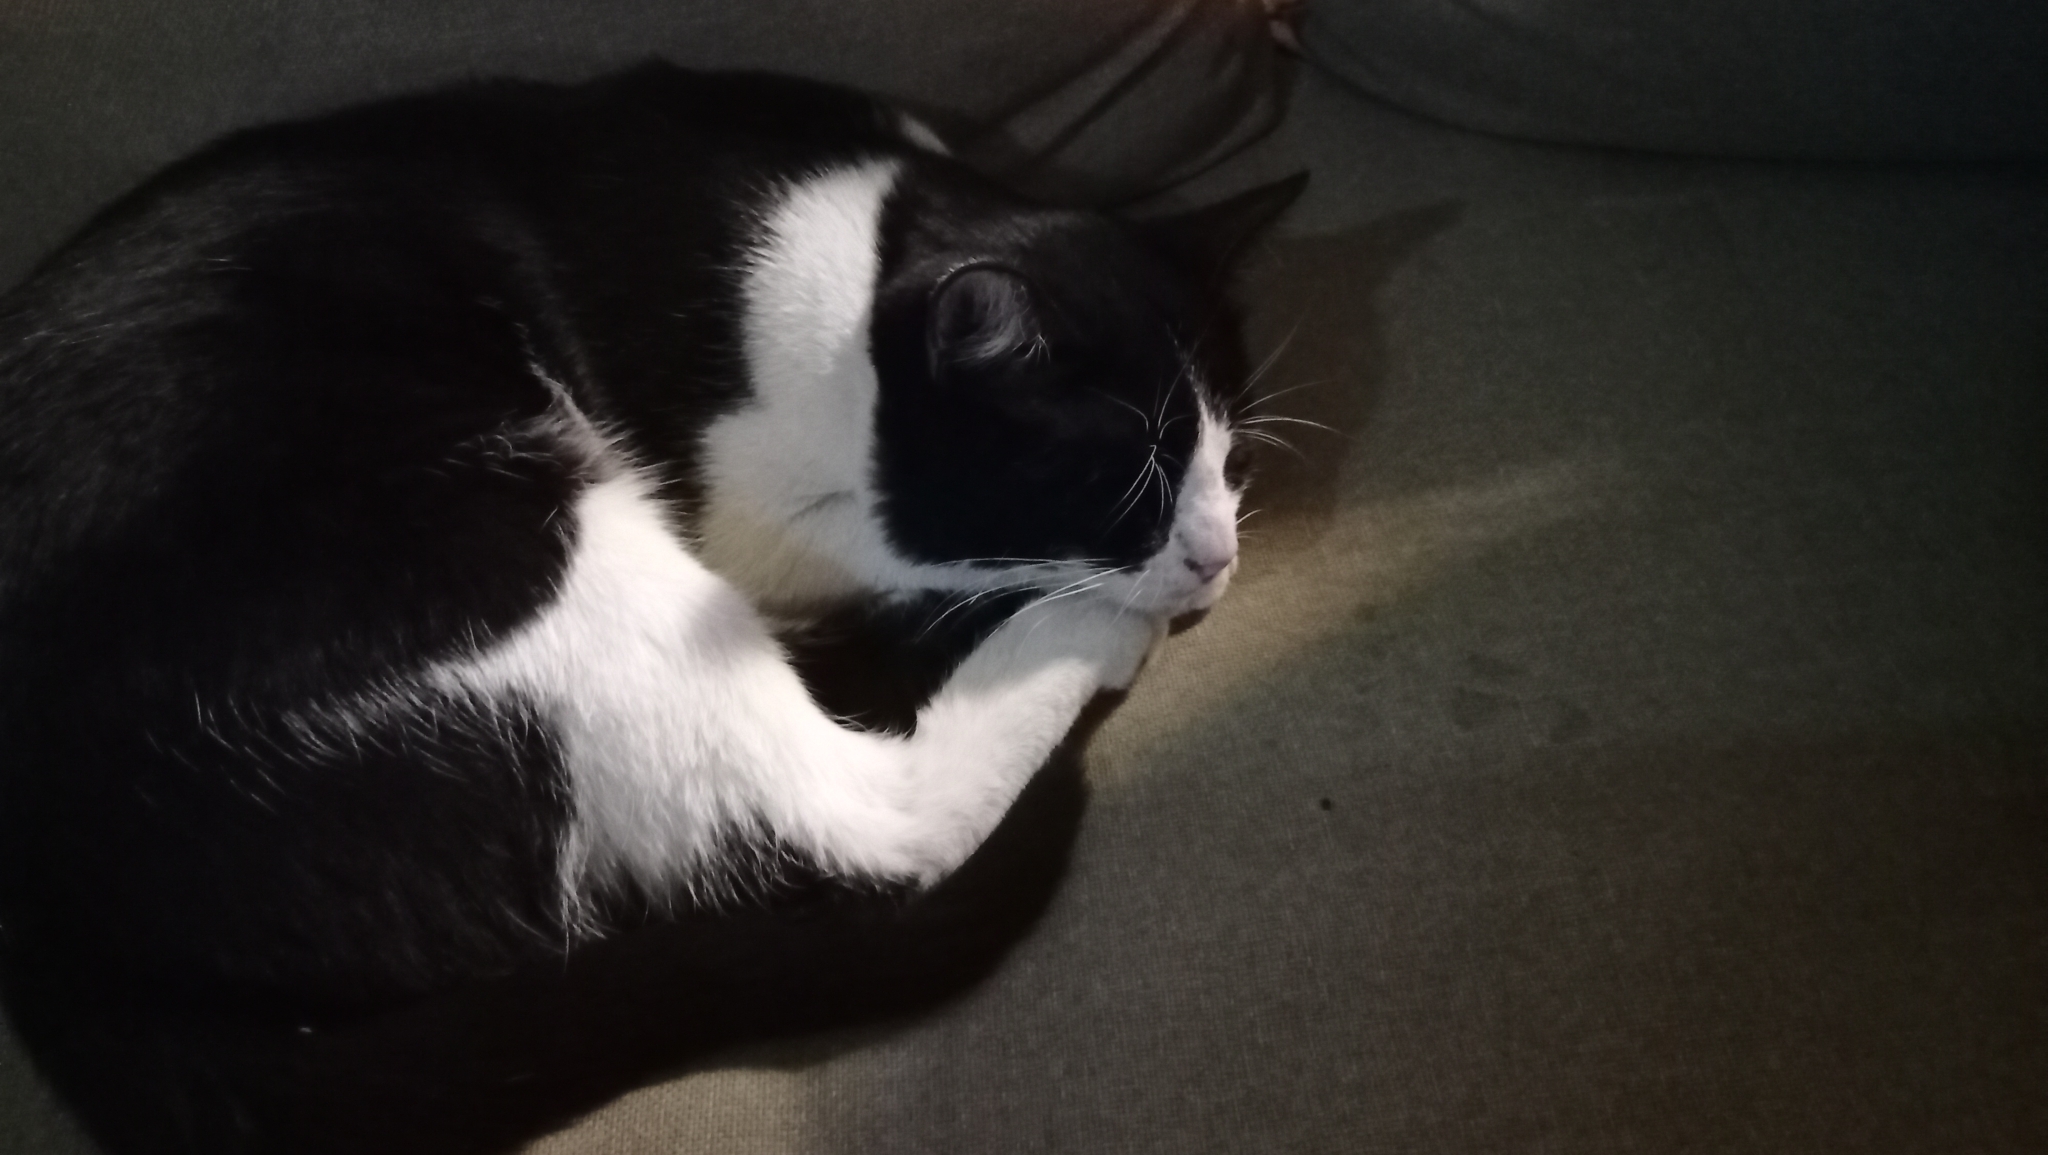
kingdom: Animalia
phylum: Chordata
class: Mammalia
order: Carnivora
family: Felidae
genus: Felis
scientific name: Felis catus
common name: Domestic cat
